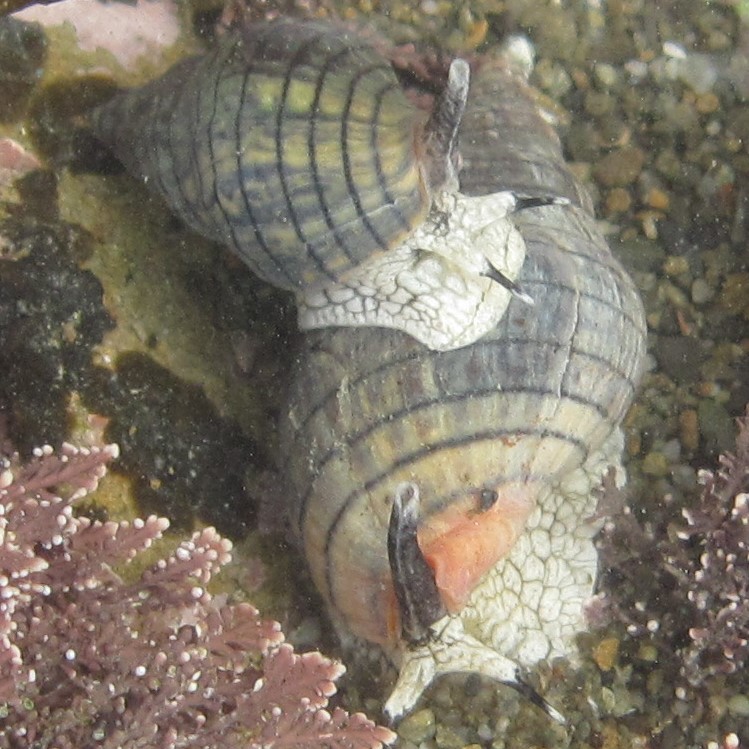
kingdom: Animalia
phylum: Mollusca
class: Gastropoda
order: Neogastropoda
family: Cominellidae
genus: Cominella
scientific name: Cominella virgata
